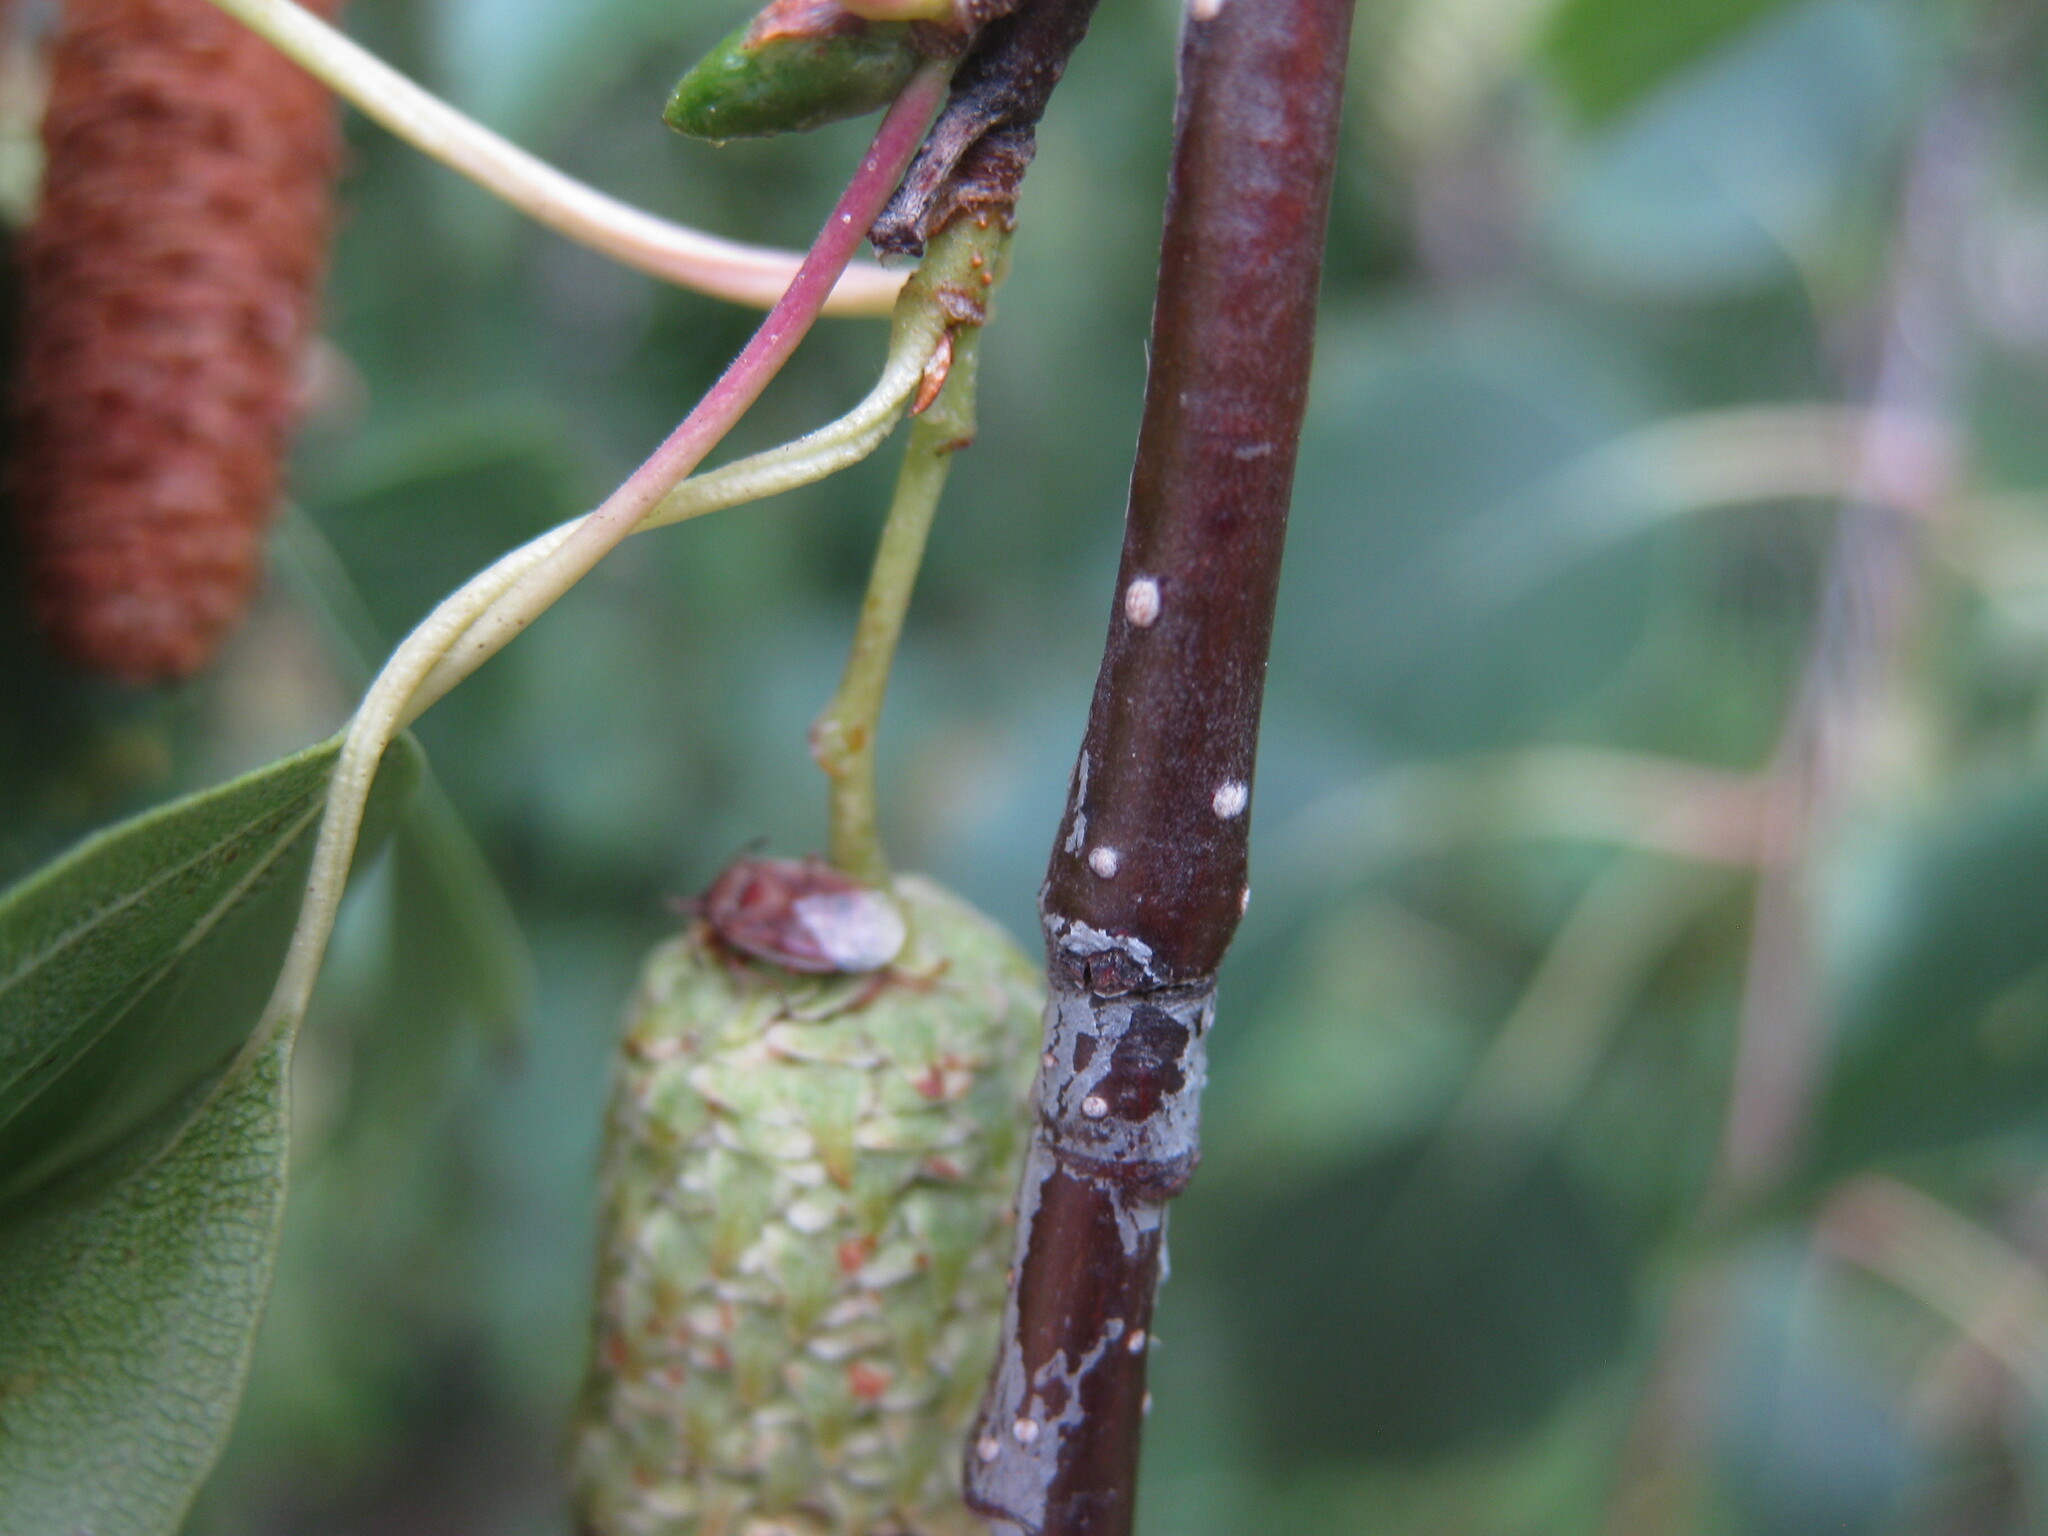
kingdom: Animalia
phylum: Arthropoda
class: Insecta
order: Hemiptera
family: Lygaeidae
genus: Kleidocerys
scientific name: Kleidocerys resedae
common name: Birch catkin bug
